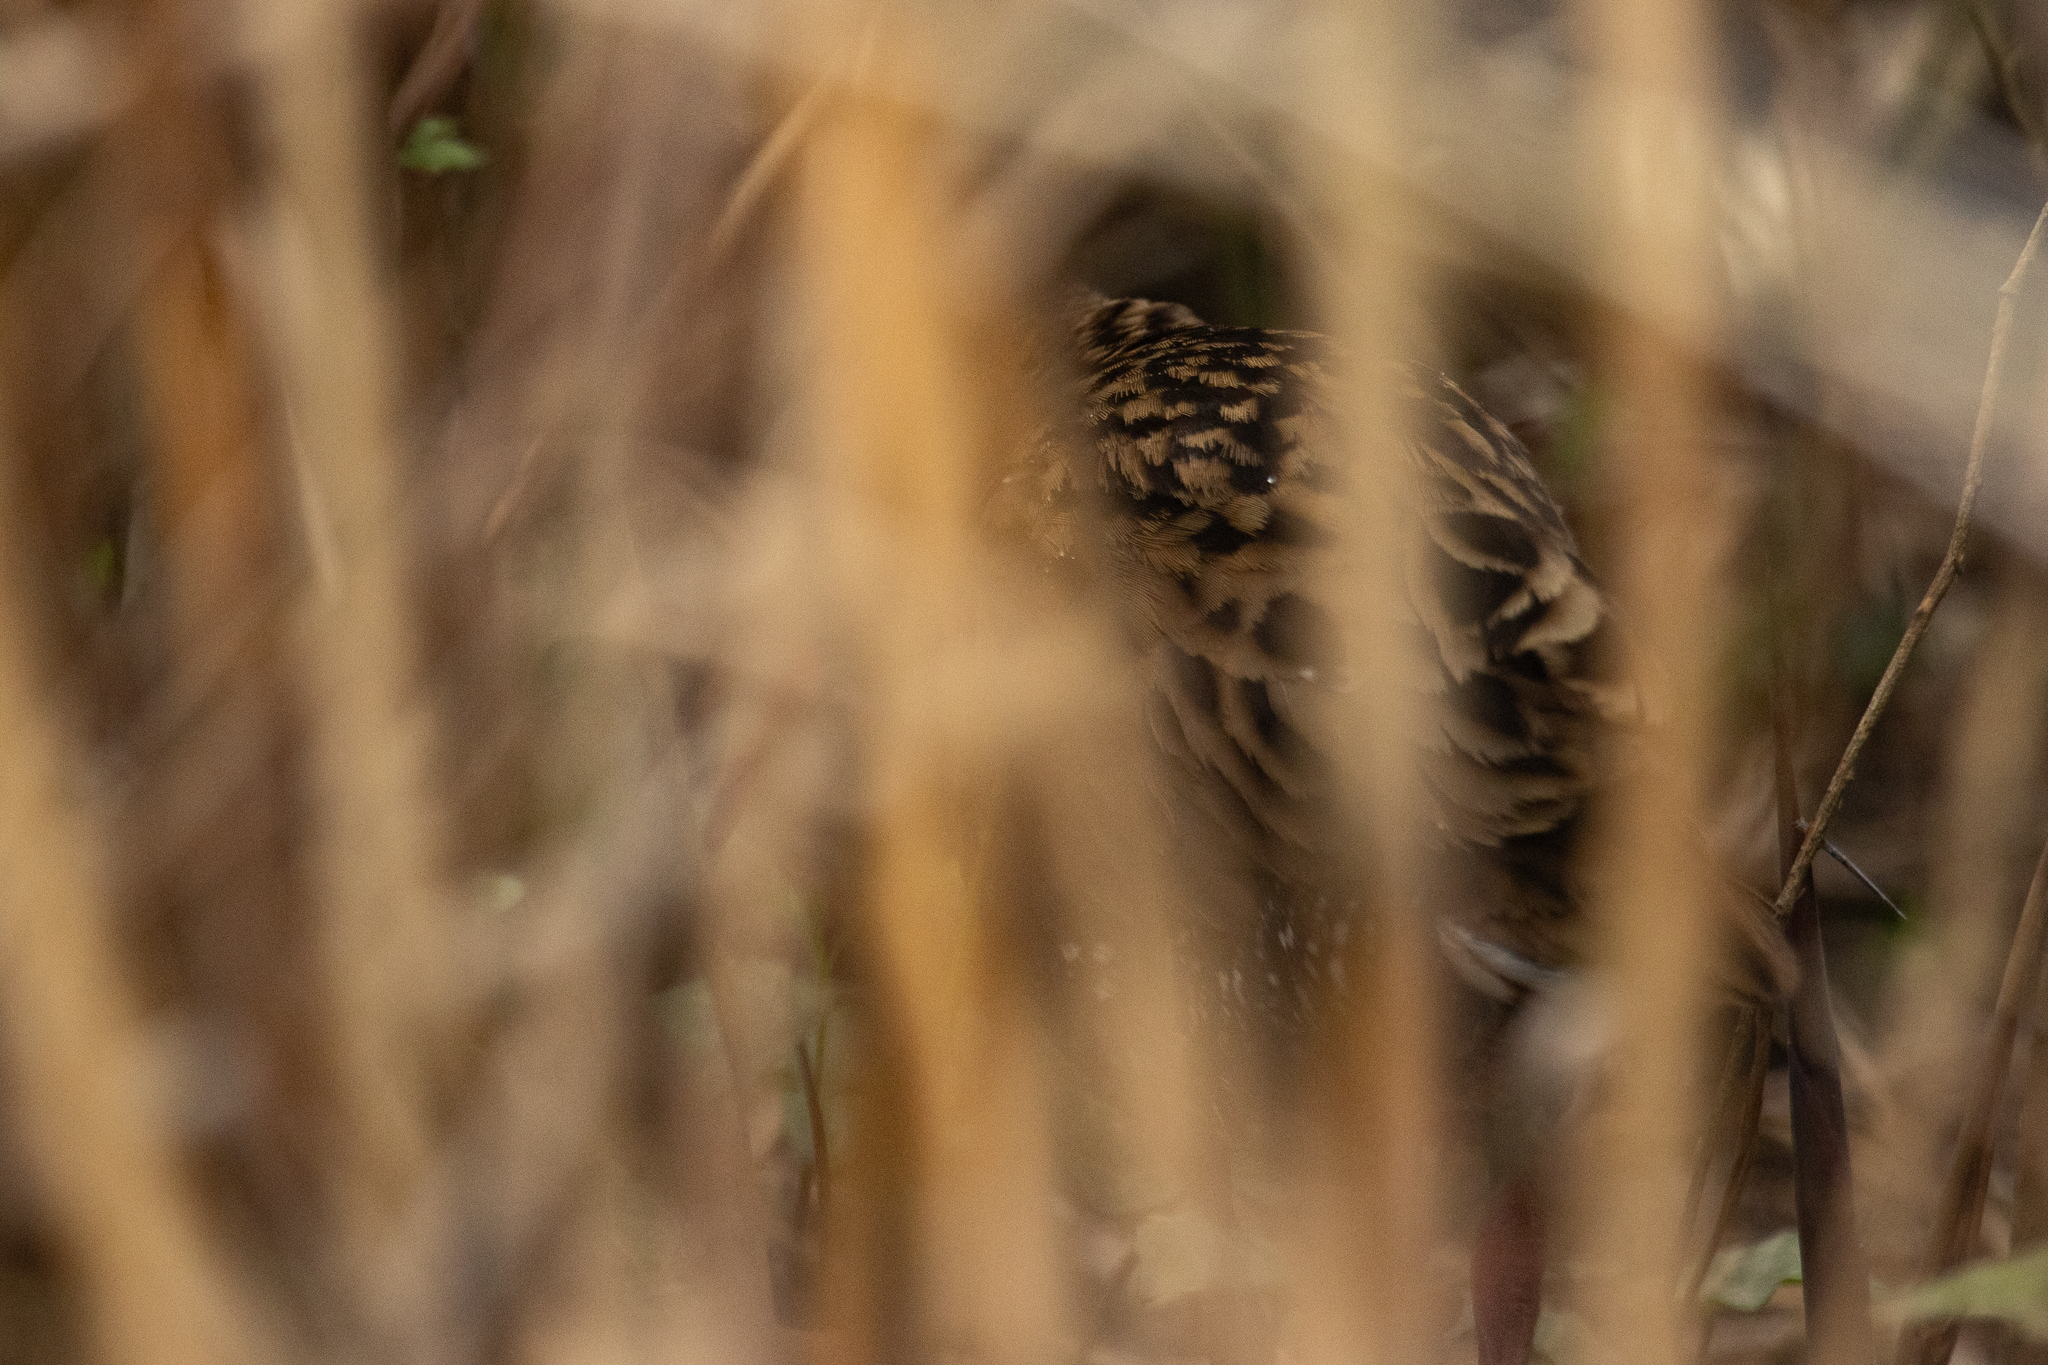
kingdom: Animalia
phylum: Chordata
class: Aves
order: Gruiformes
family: Rallidae
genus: Rallus
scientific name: Rallus aquaticus
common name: Water rail
